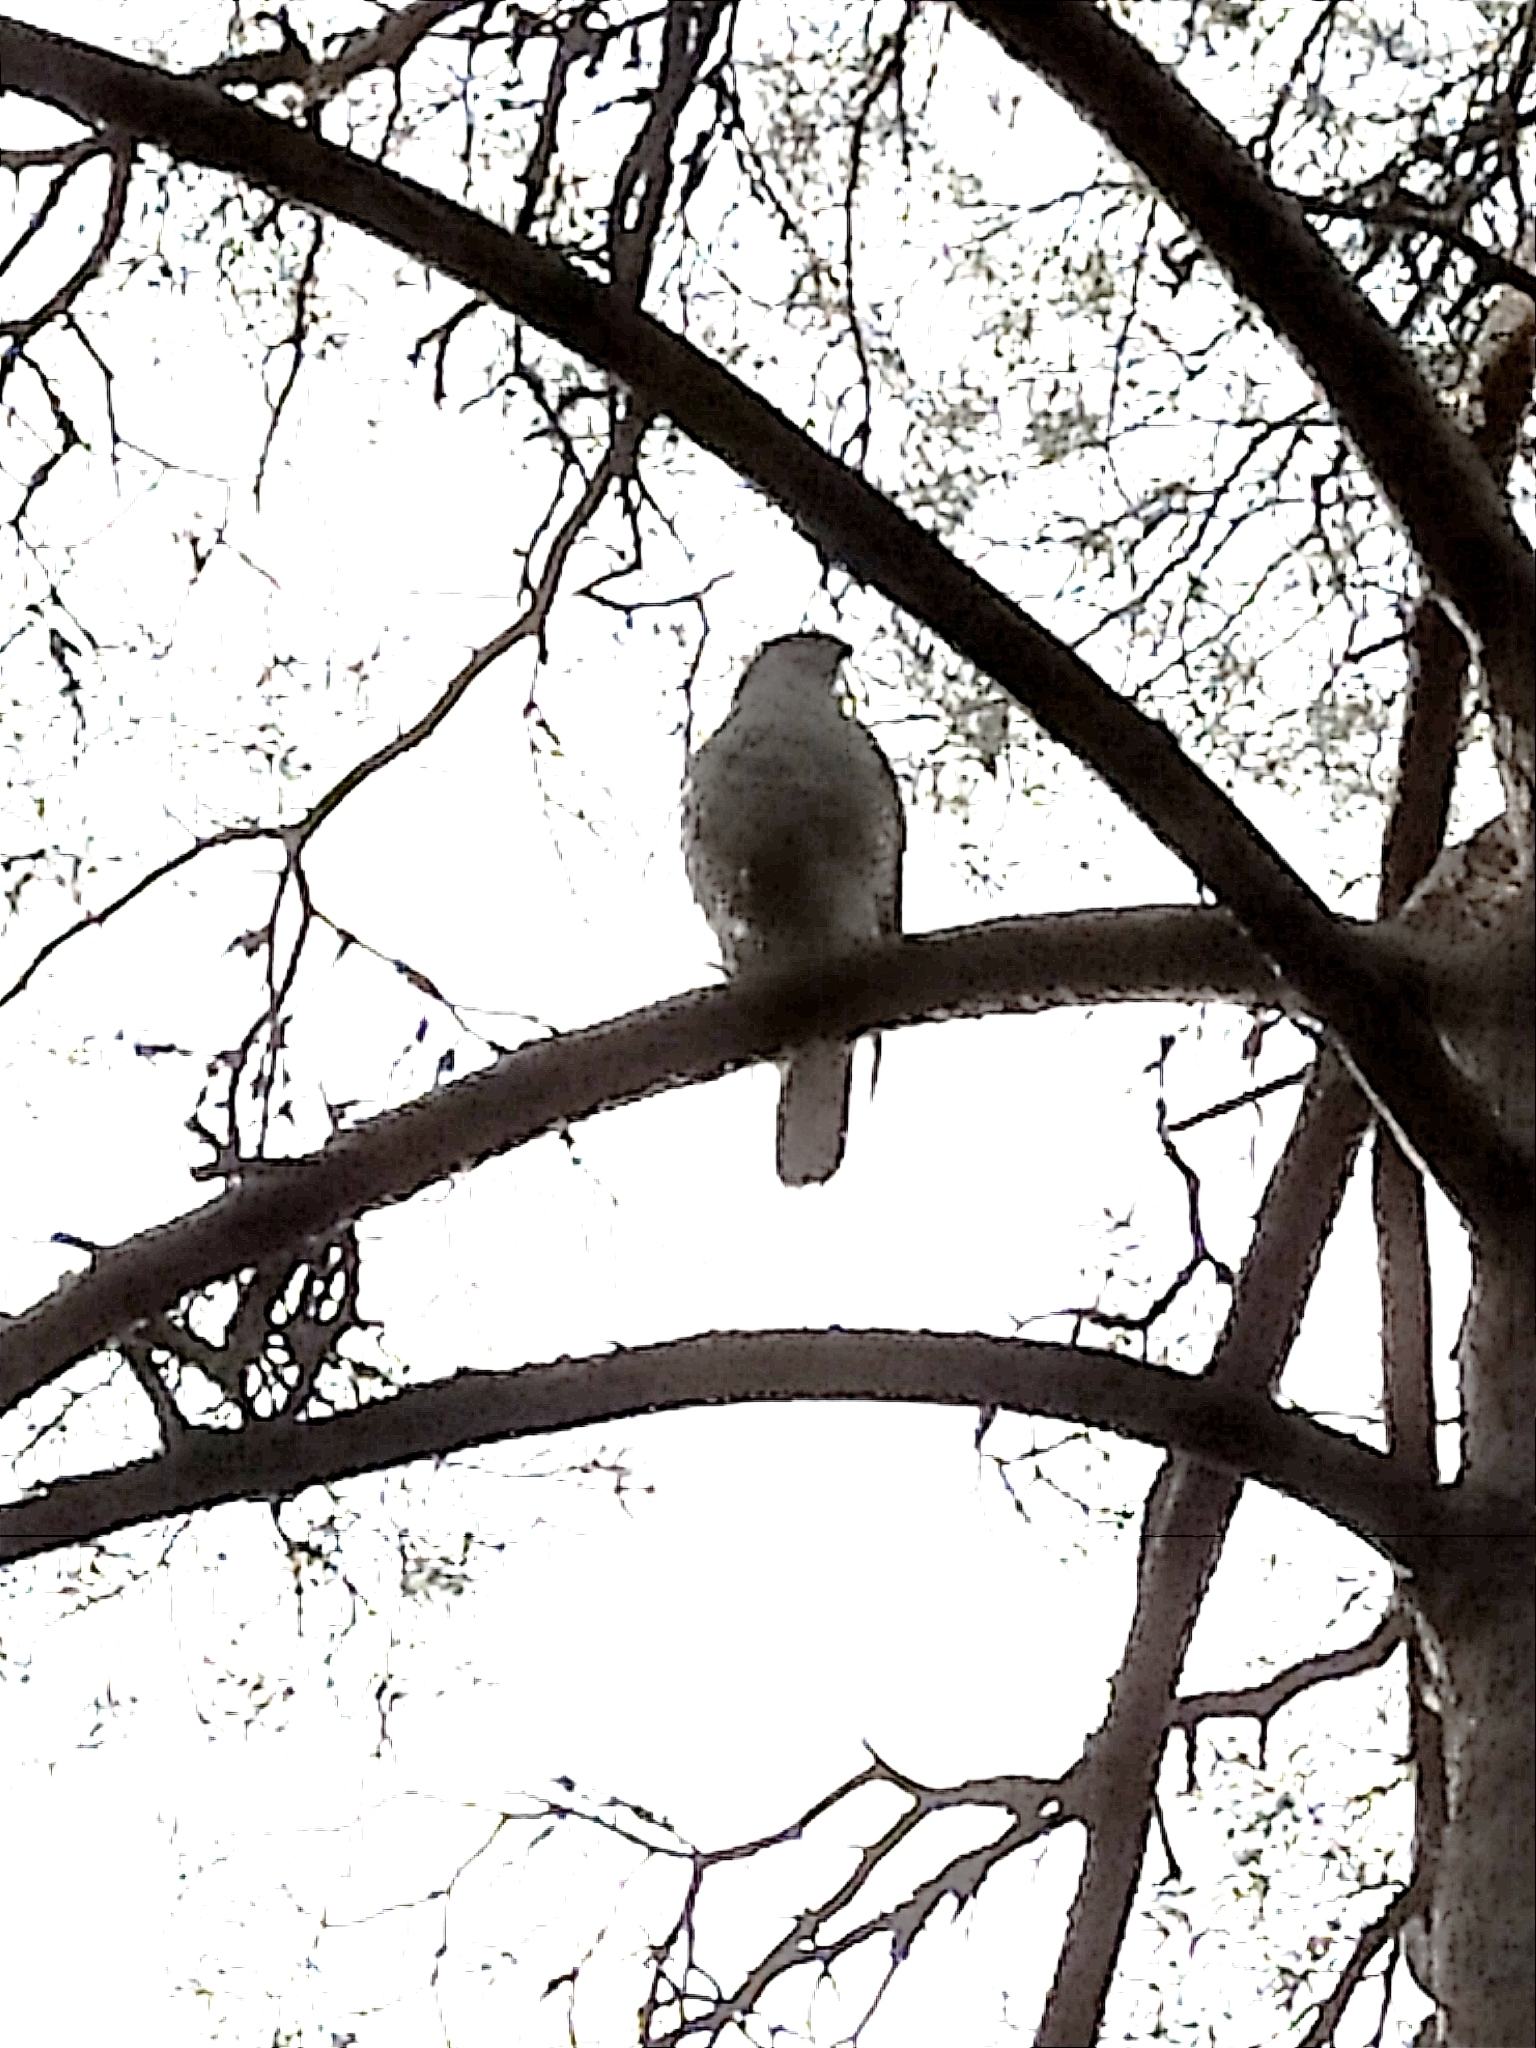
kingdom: Animalia
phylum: Chordata
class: Aves
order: Accipitriformes
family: Accipitridae
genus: Accipiter
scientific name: Accipiter gentilis
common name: Northern goshawk
